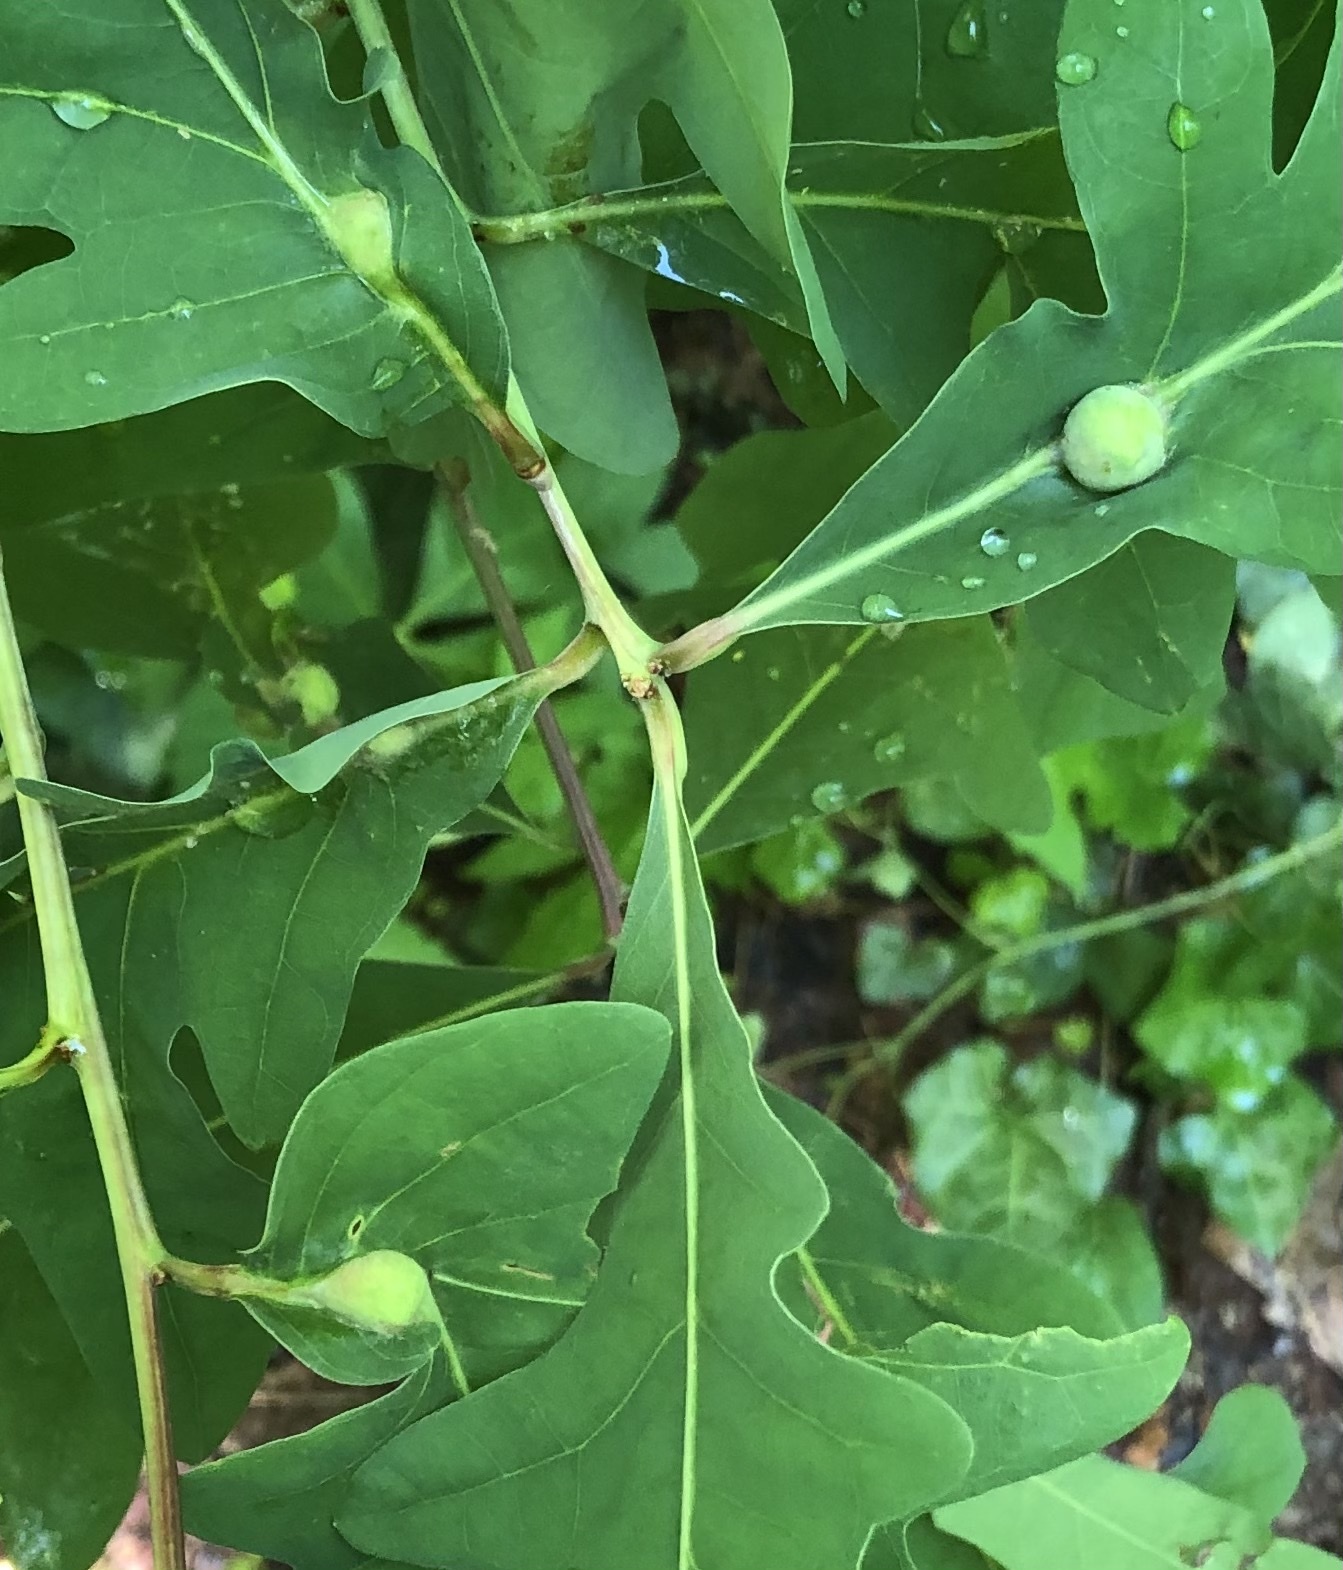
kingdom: Animalia
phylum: Arthropoda
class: Insecta
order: Hymenoptera
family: Cynipidae
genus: Andricus
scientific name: Andricus
